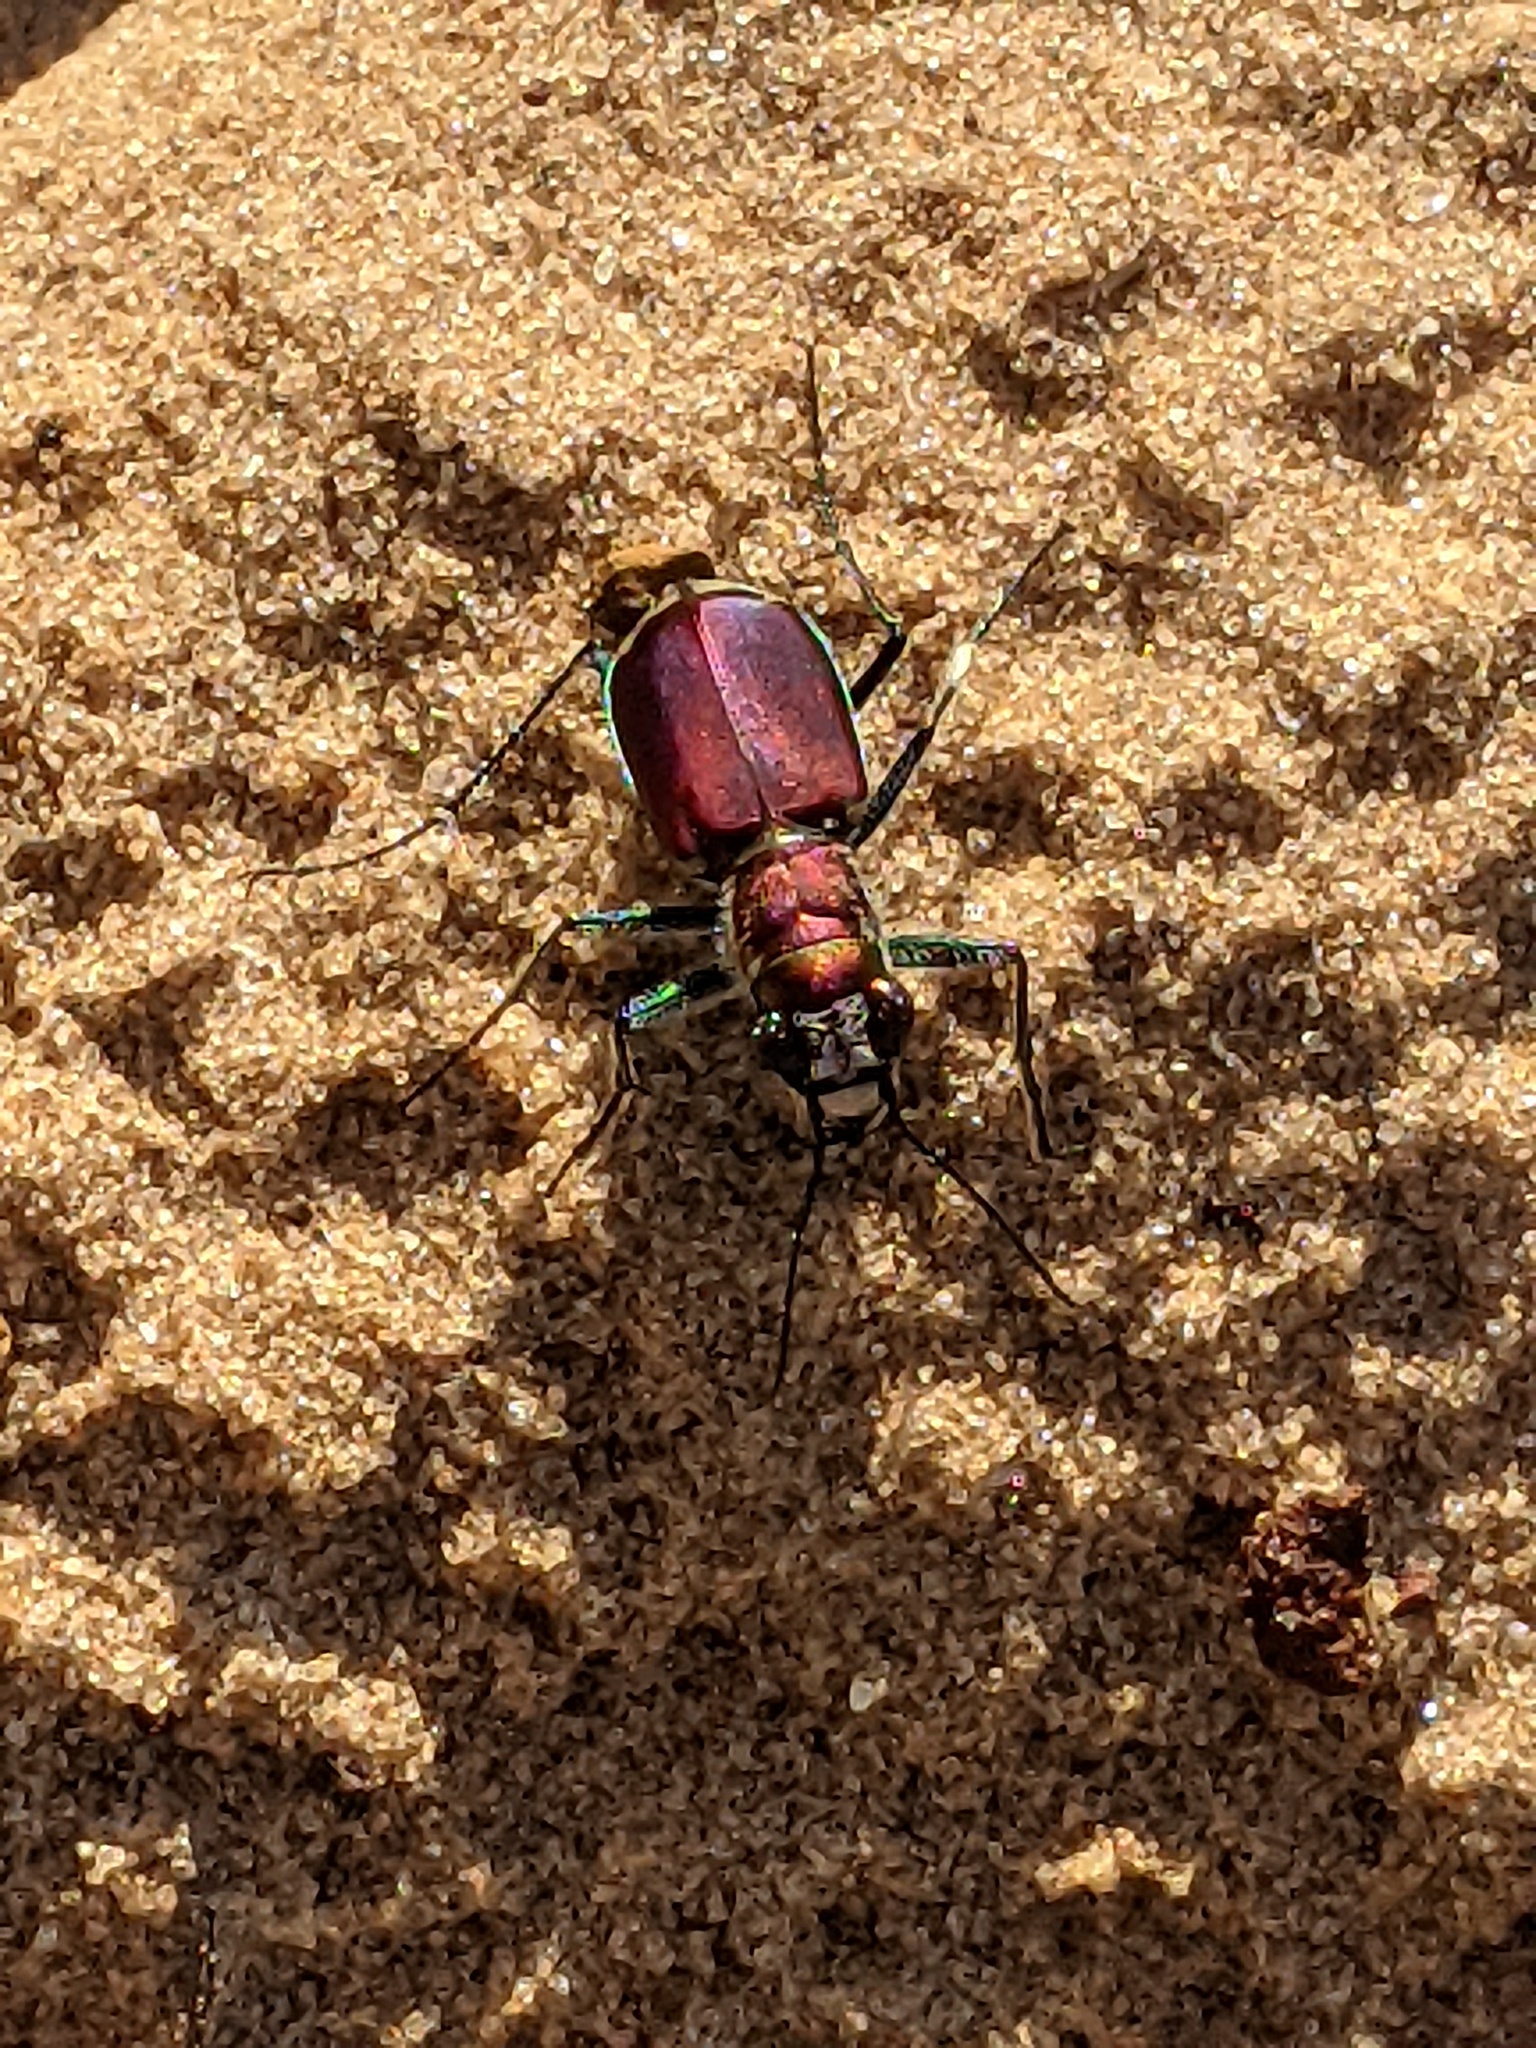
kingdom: Animalia
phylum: Arthropoda
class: Insecta
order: Coleoptera
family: Carabidae
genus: Cicindela
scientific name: Cicindela formosa
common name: Big sand tiger beetle
